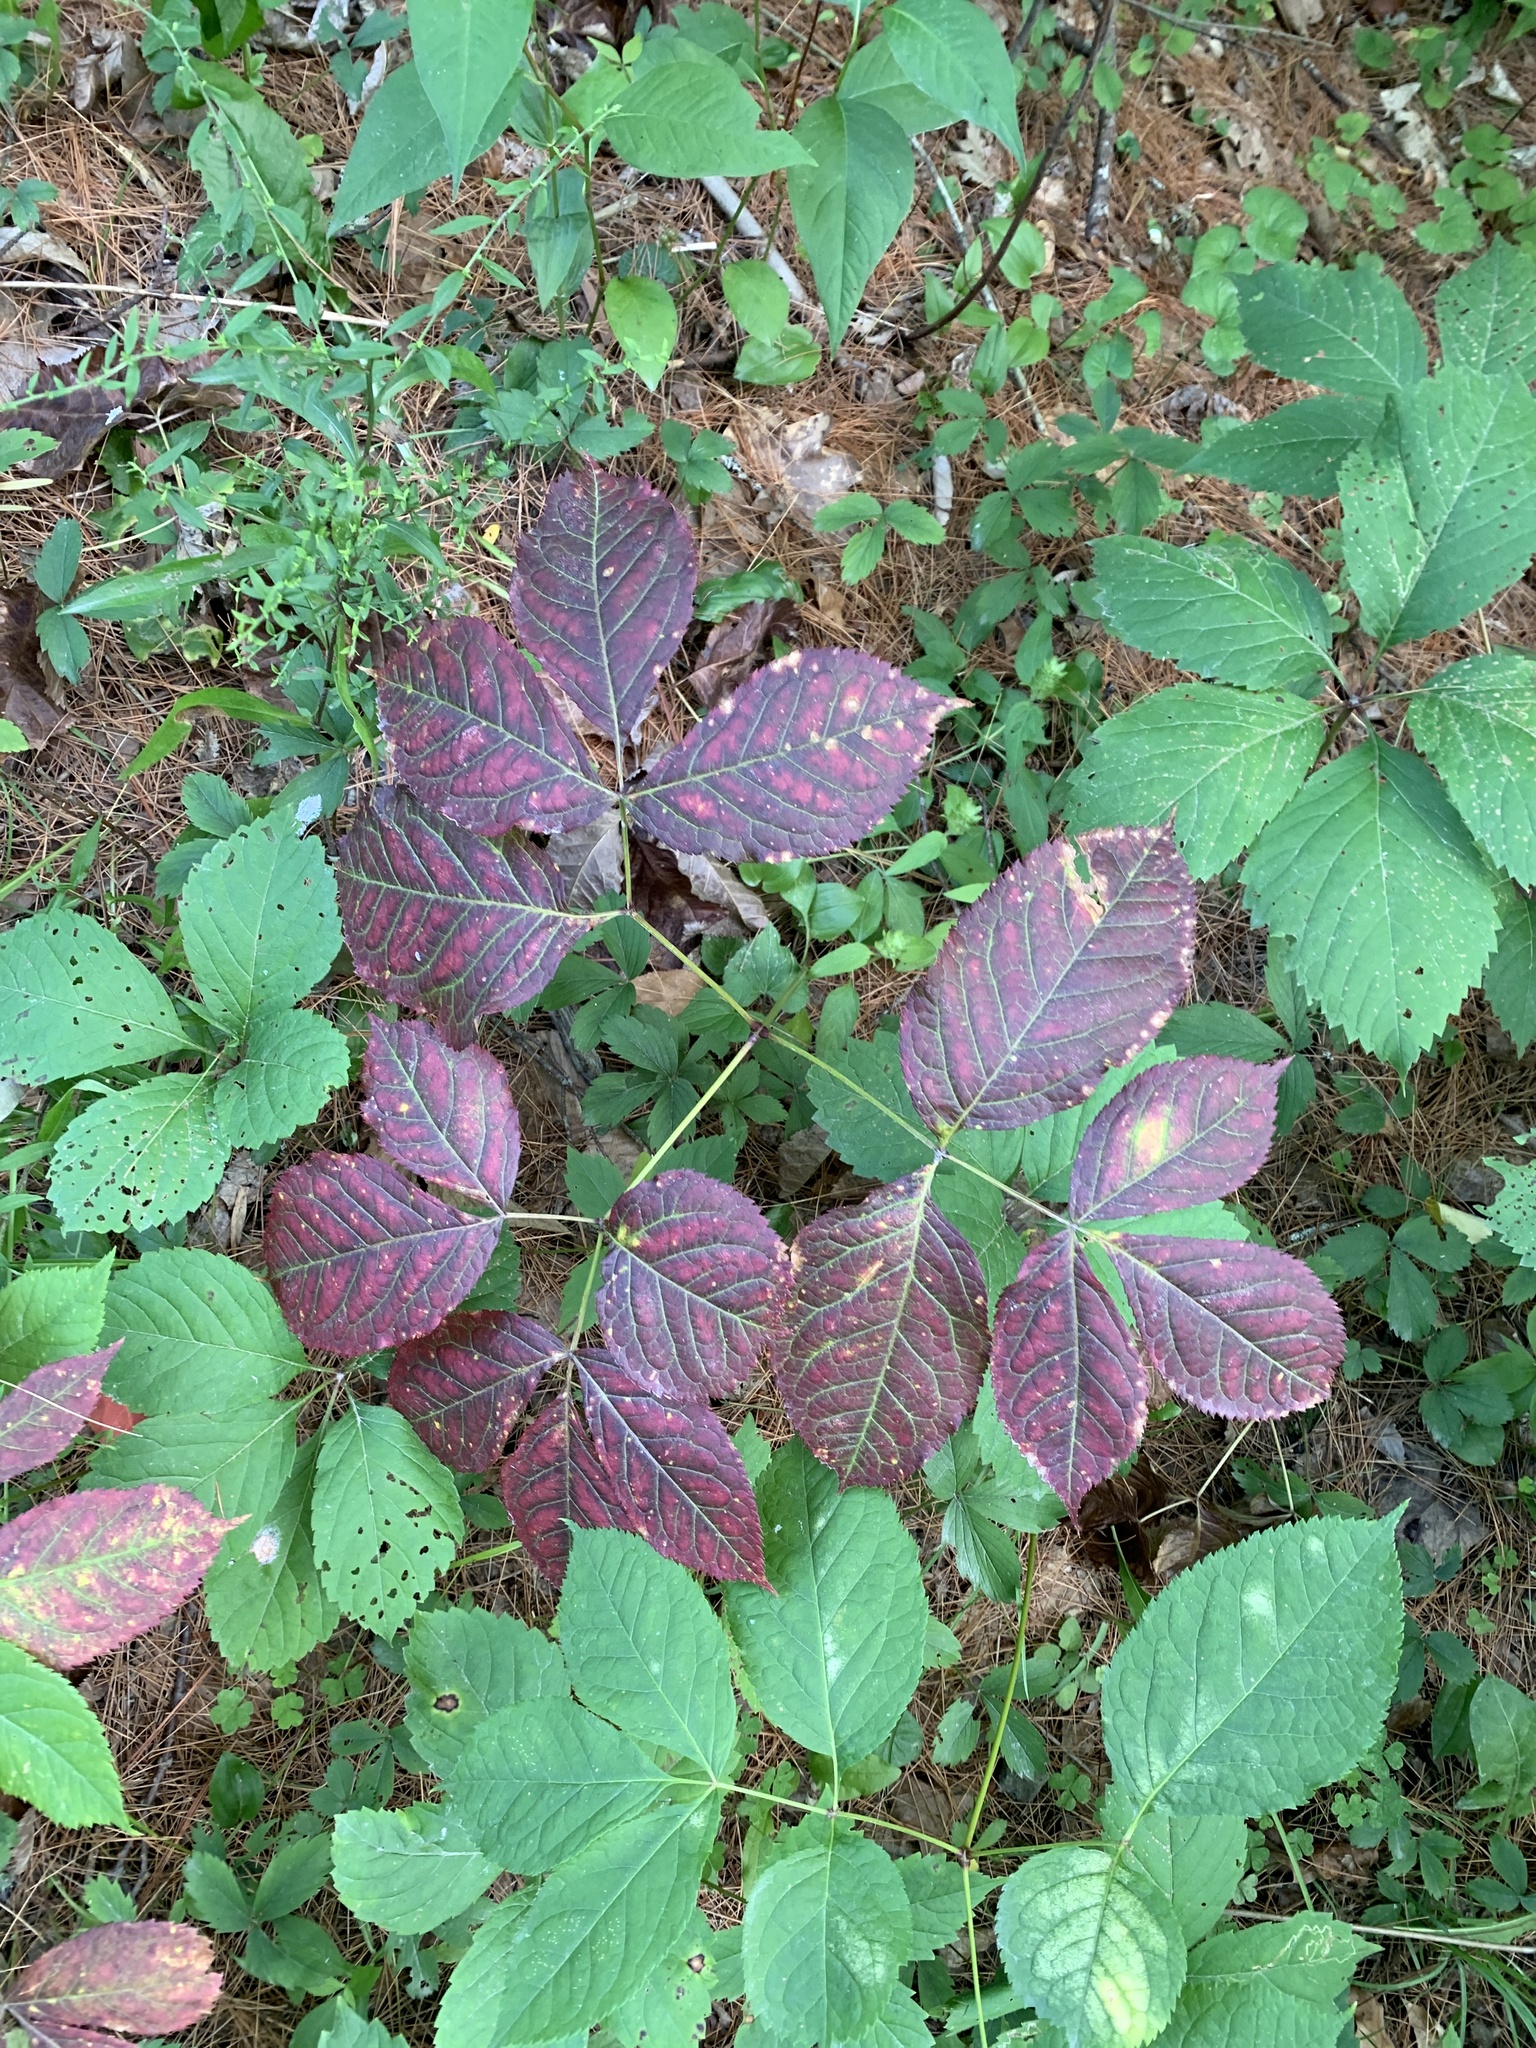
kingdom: Plantae
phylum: Tracheophyta
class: Magnoliopsida
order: Apiales
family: Araliaceae
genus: Aralia
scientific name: Aralia nudicaulis
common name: Wild sarsaparilla
